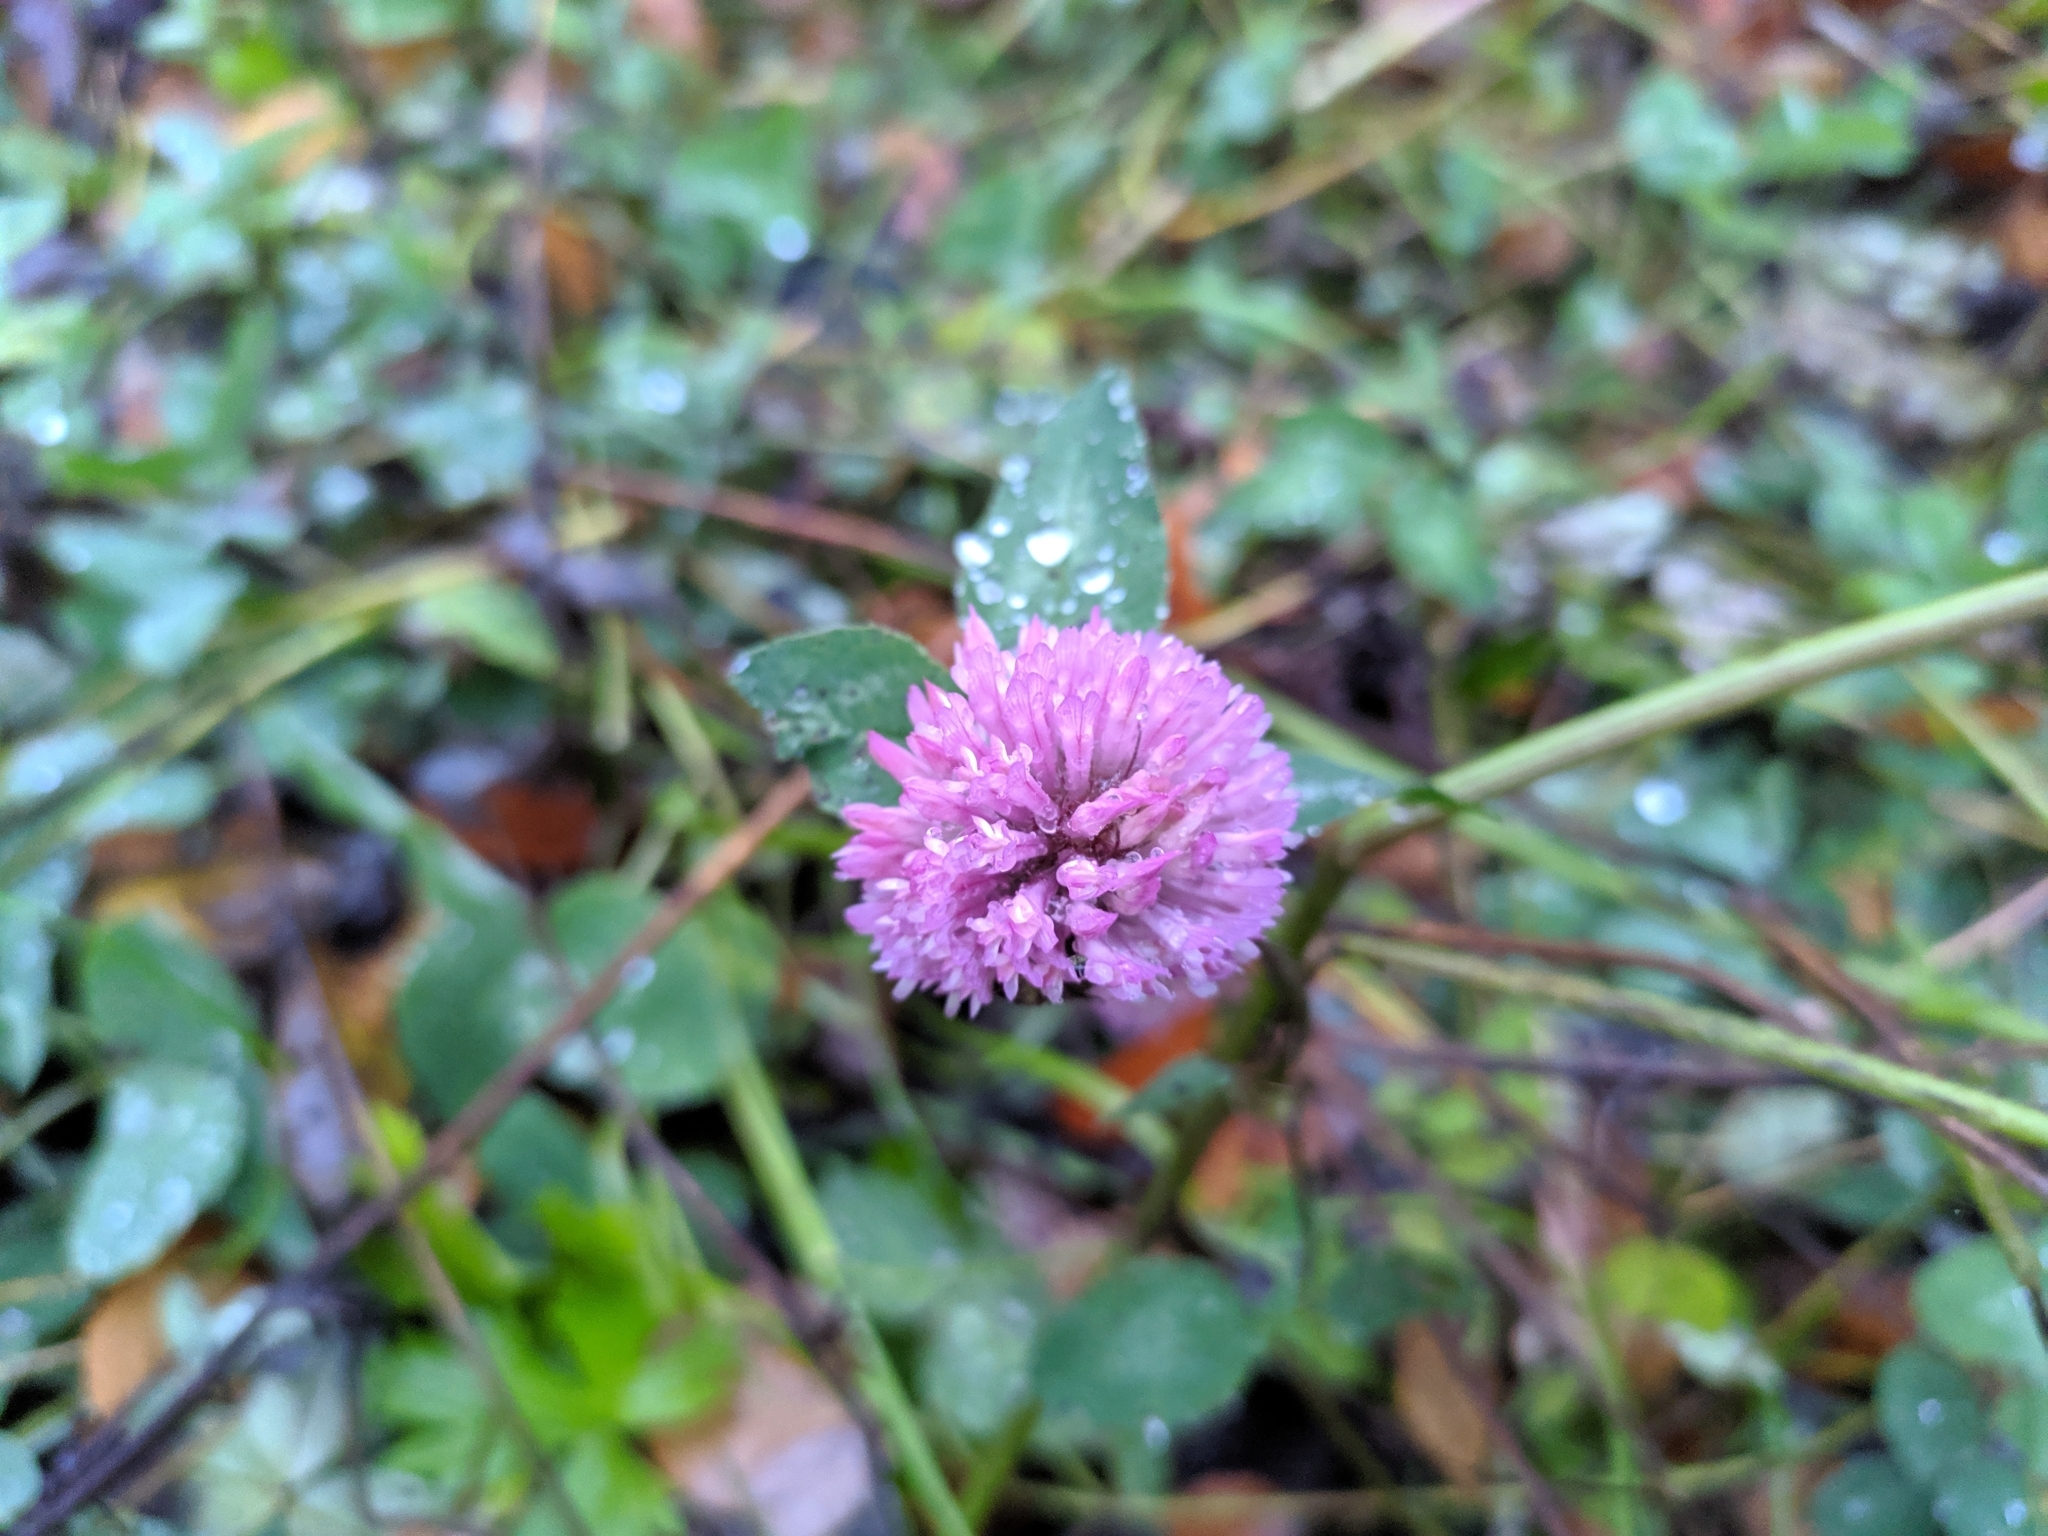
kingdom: Plantae
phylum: Tracheophyta
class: Magnoliopsida
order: Fabales
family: Fabaceae
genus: Trifolium
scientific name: Trifolium pratense
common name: Red clover
